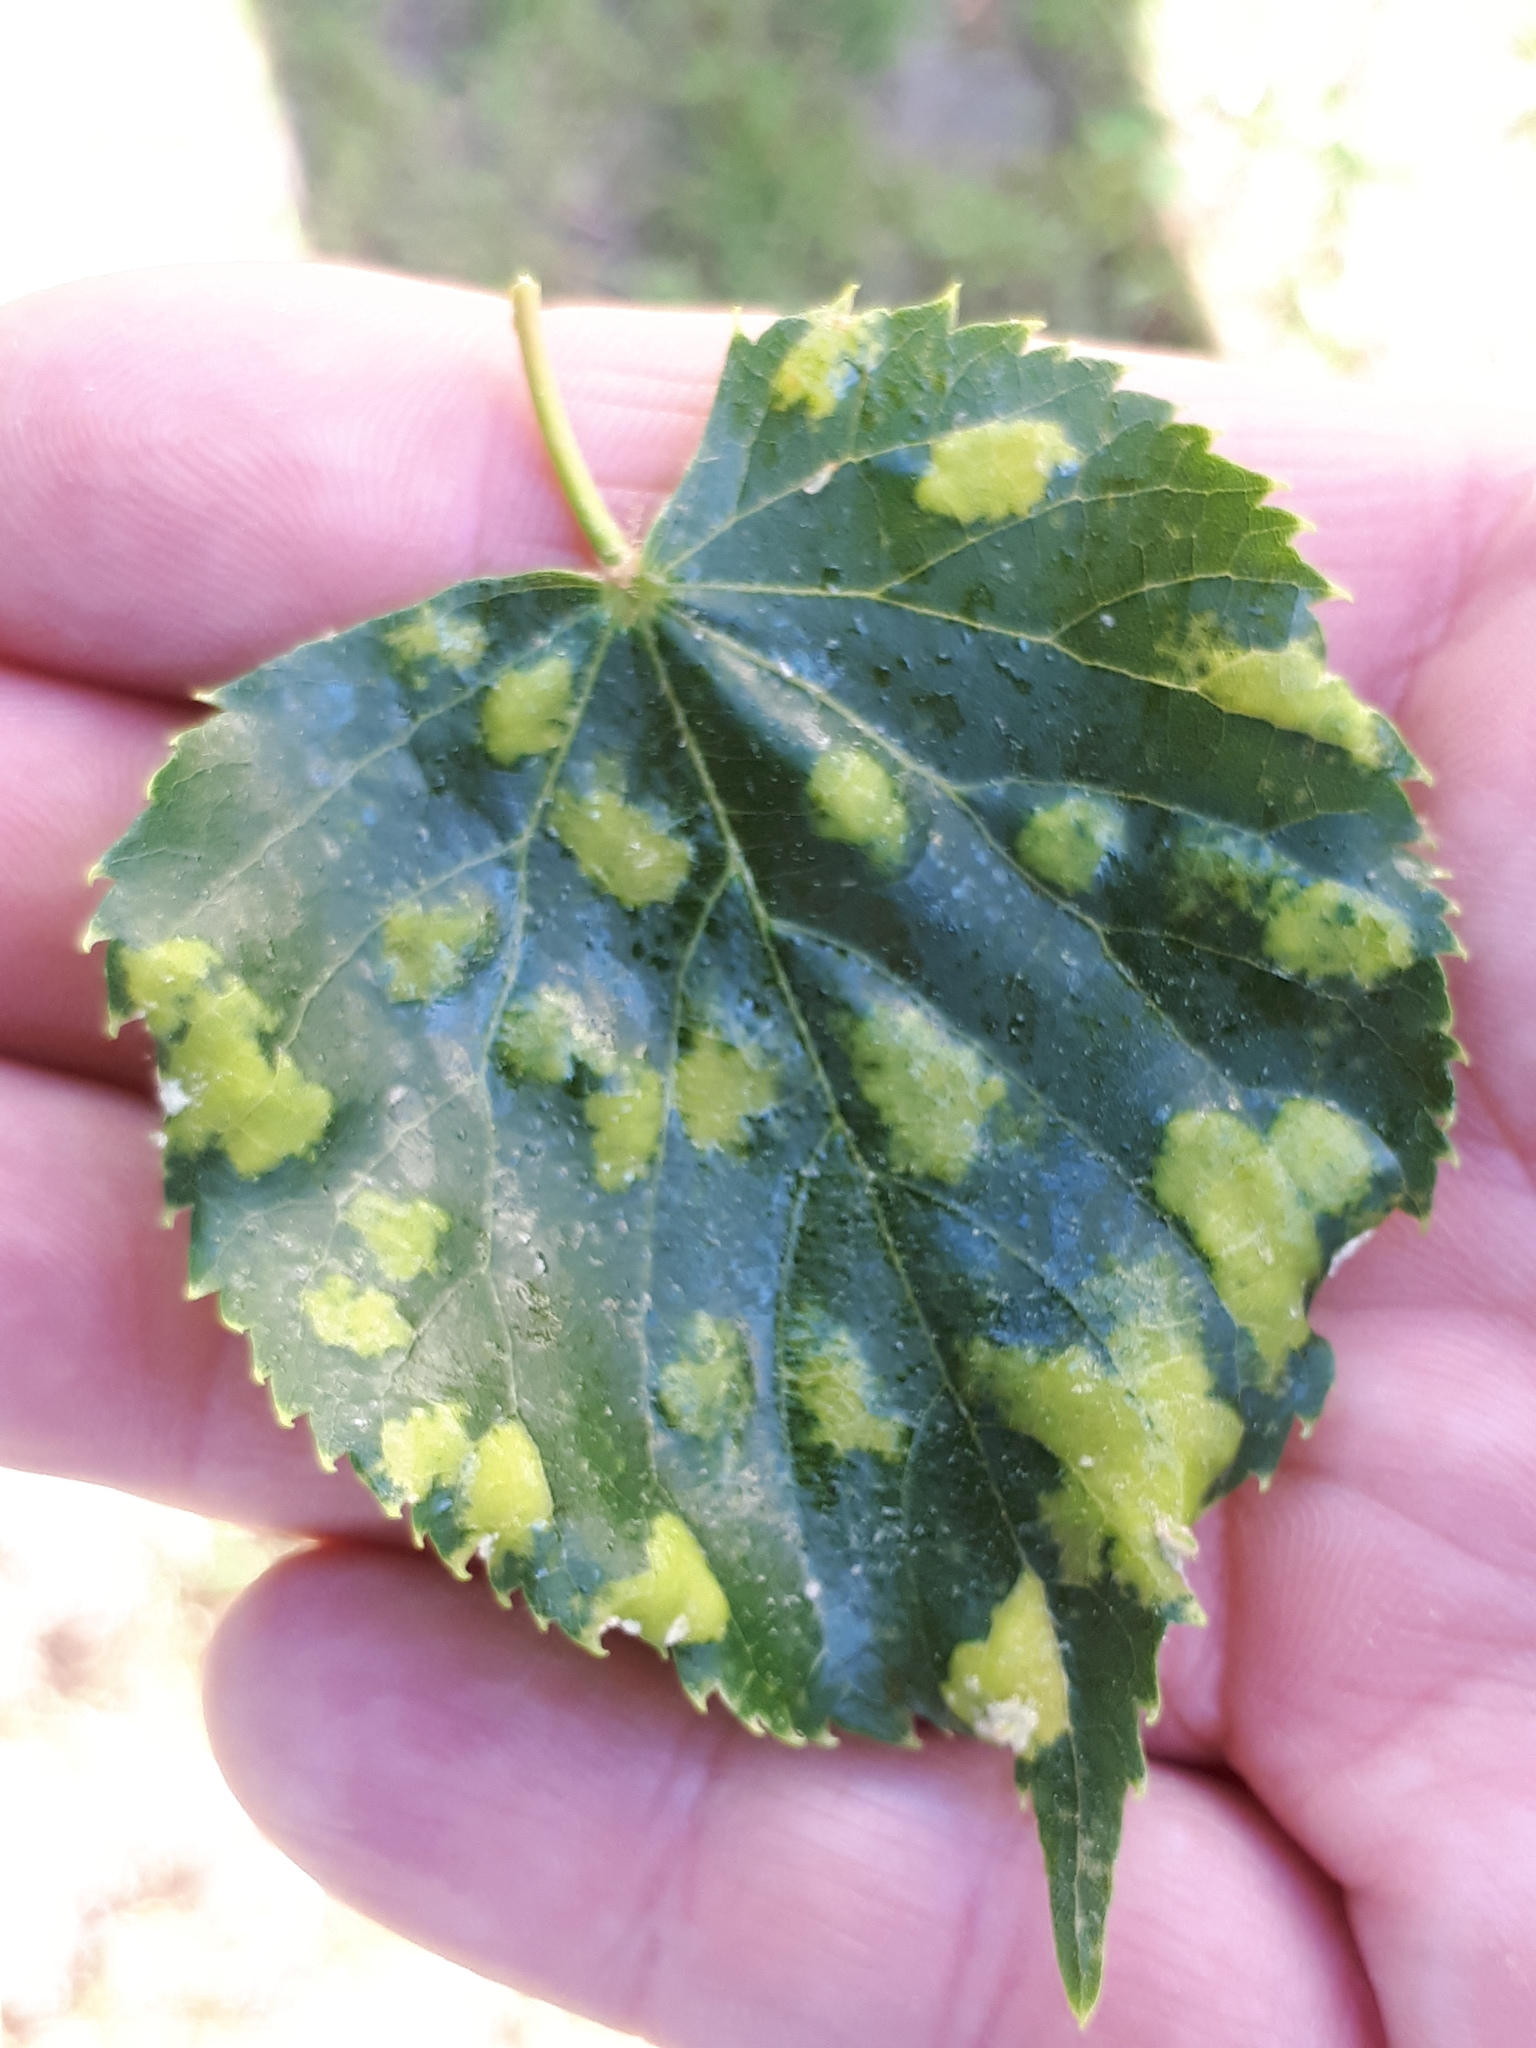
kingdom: Animalia
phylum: Arthropoda
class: Arachnida
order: Trombidiformes
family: Eriophyidae
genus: Eriophyes
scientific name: Eriophyes leiosoma
